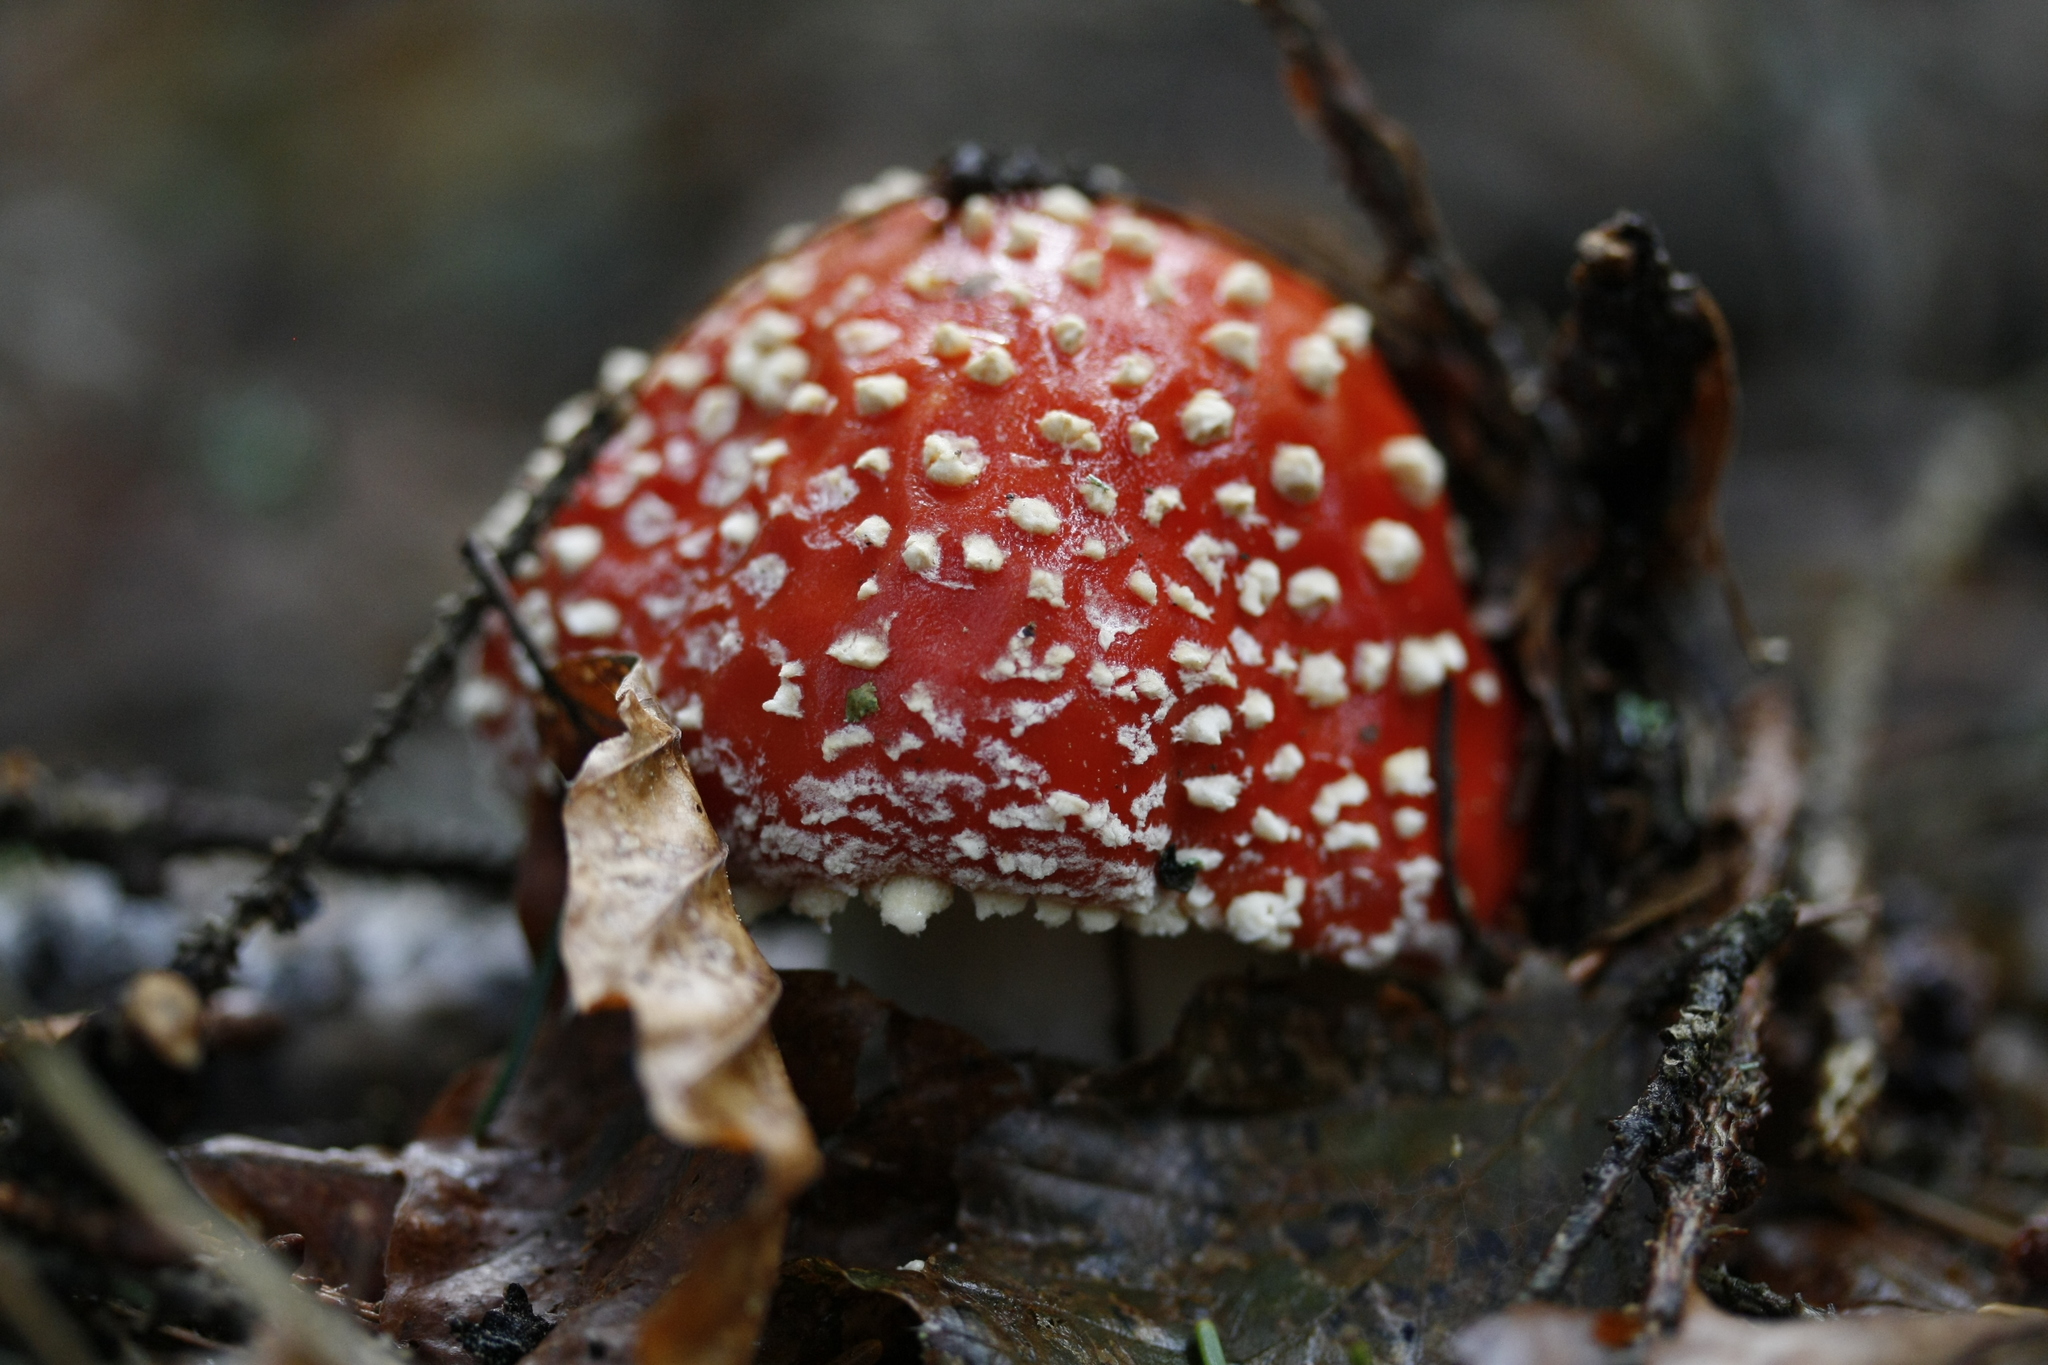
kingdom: Fungi
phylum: Basidiomycota
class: Agaricomycetes
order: Agaricales
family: Amanitaceae
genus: Amanita
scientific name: Amanita muscaria
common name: Fly agaric
